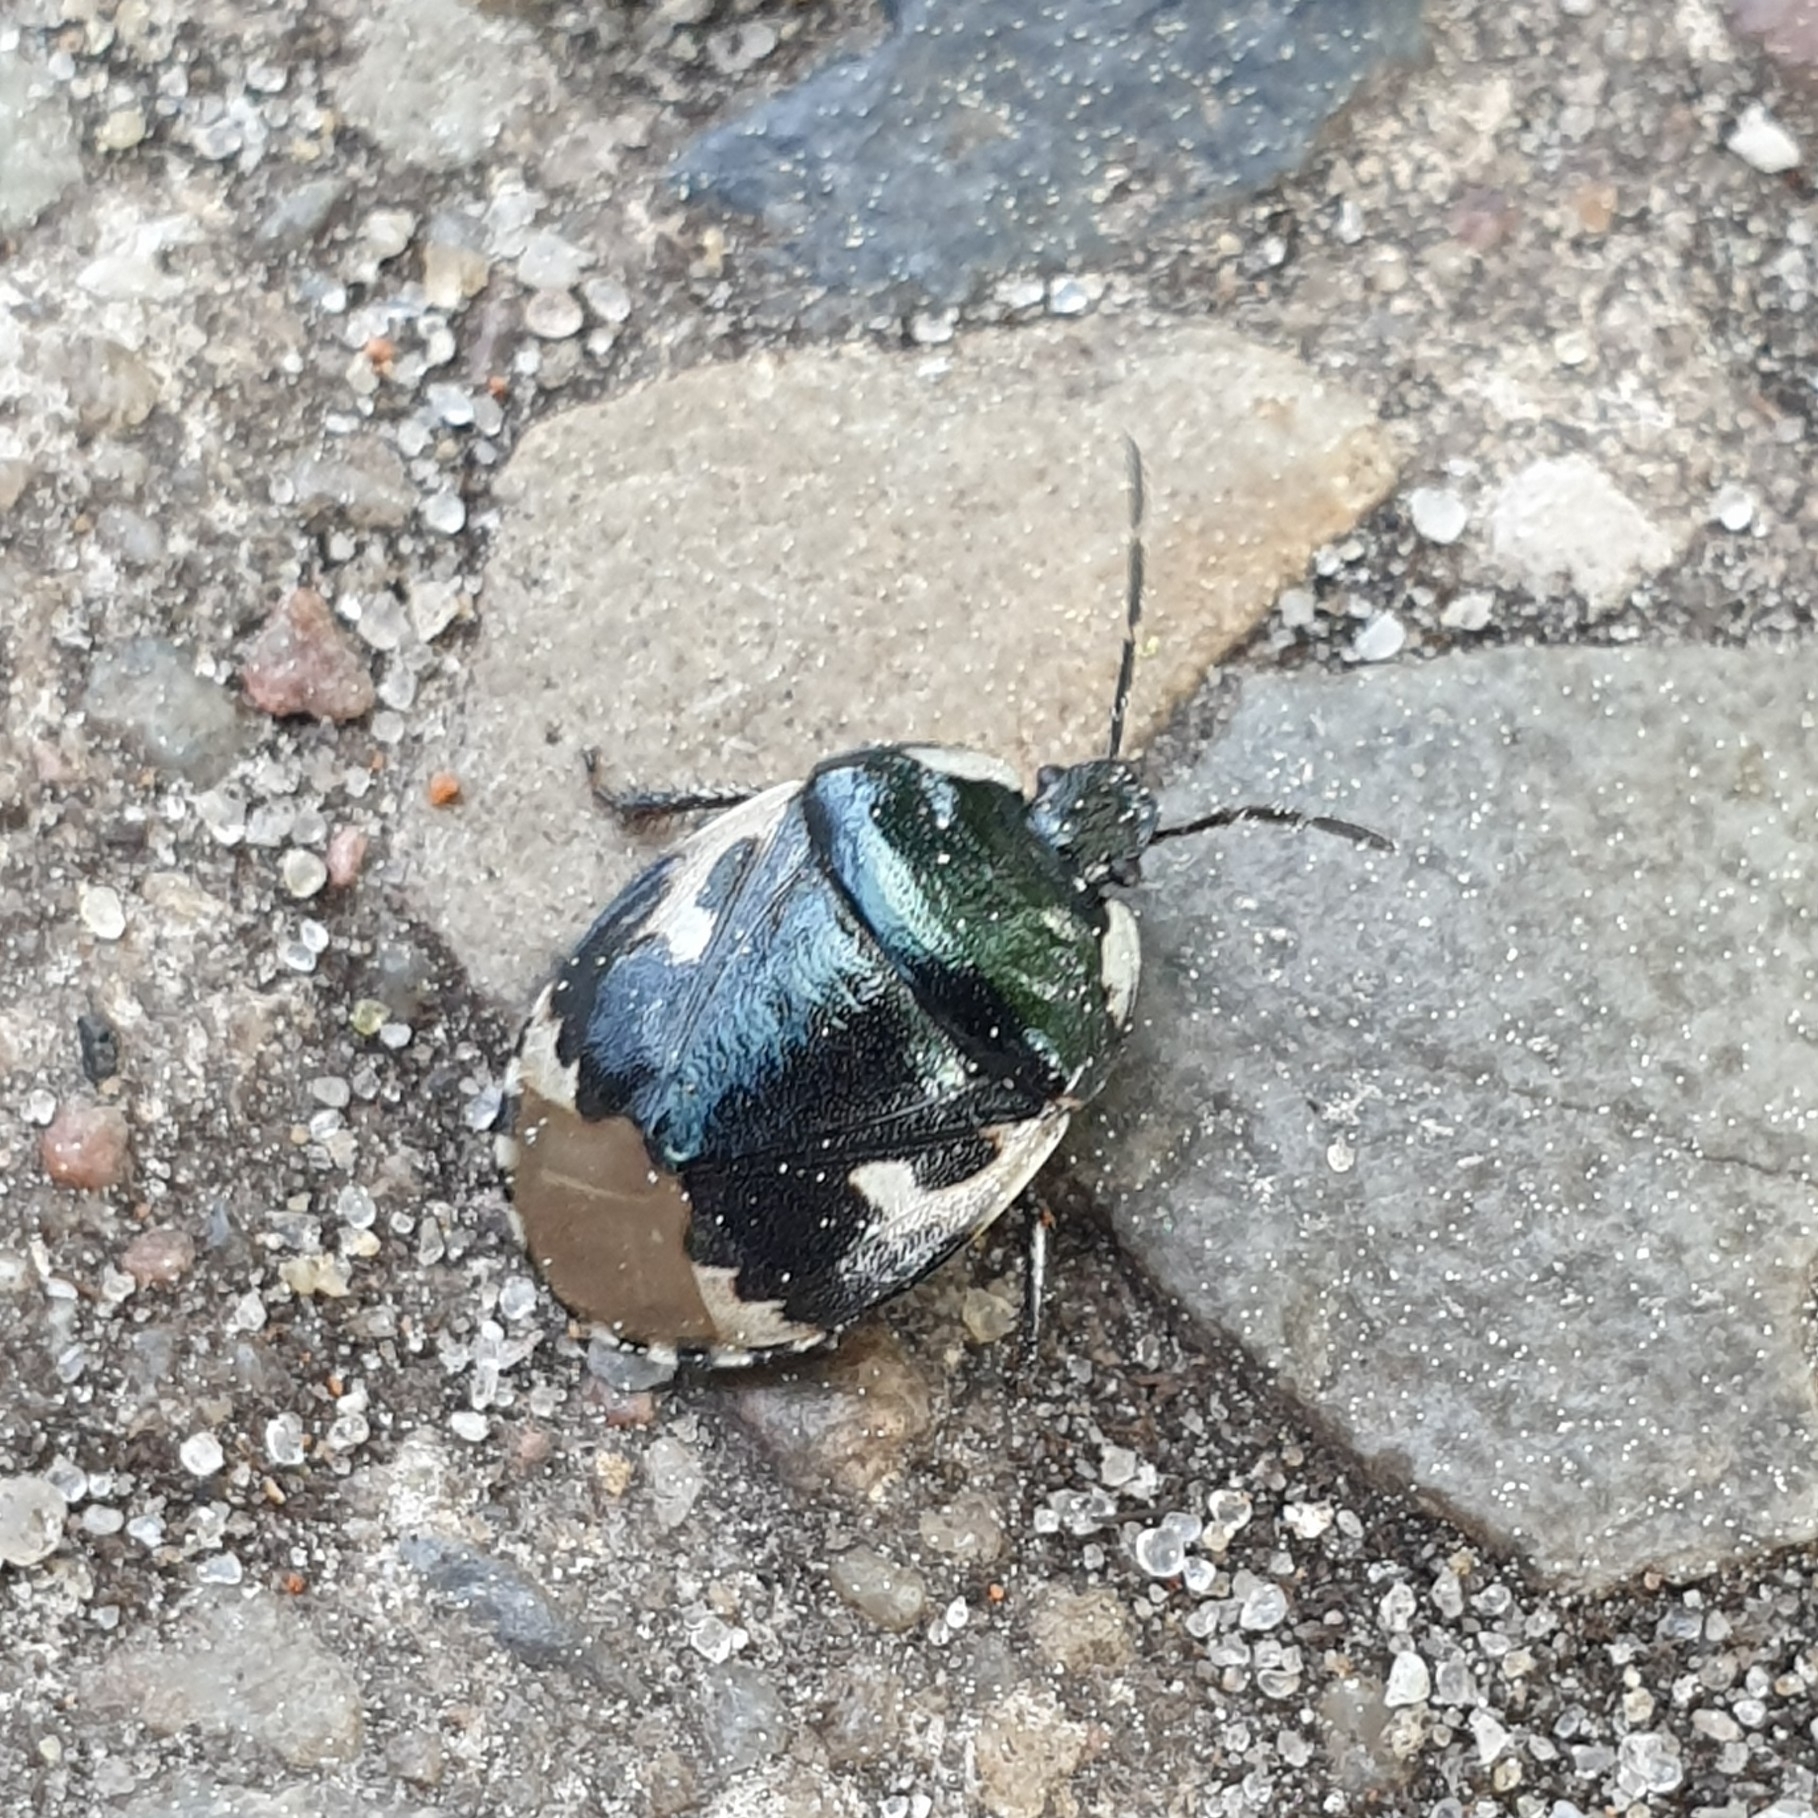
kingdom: Animalia
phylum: Arthropoda
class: Insecta
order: Hemiptera
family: Cydnidae
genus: Tritomegas
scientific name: Tritomegas bicolor
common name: Pied shieldbug
